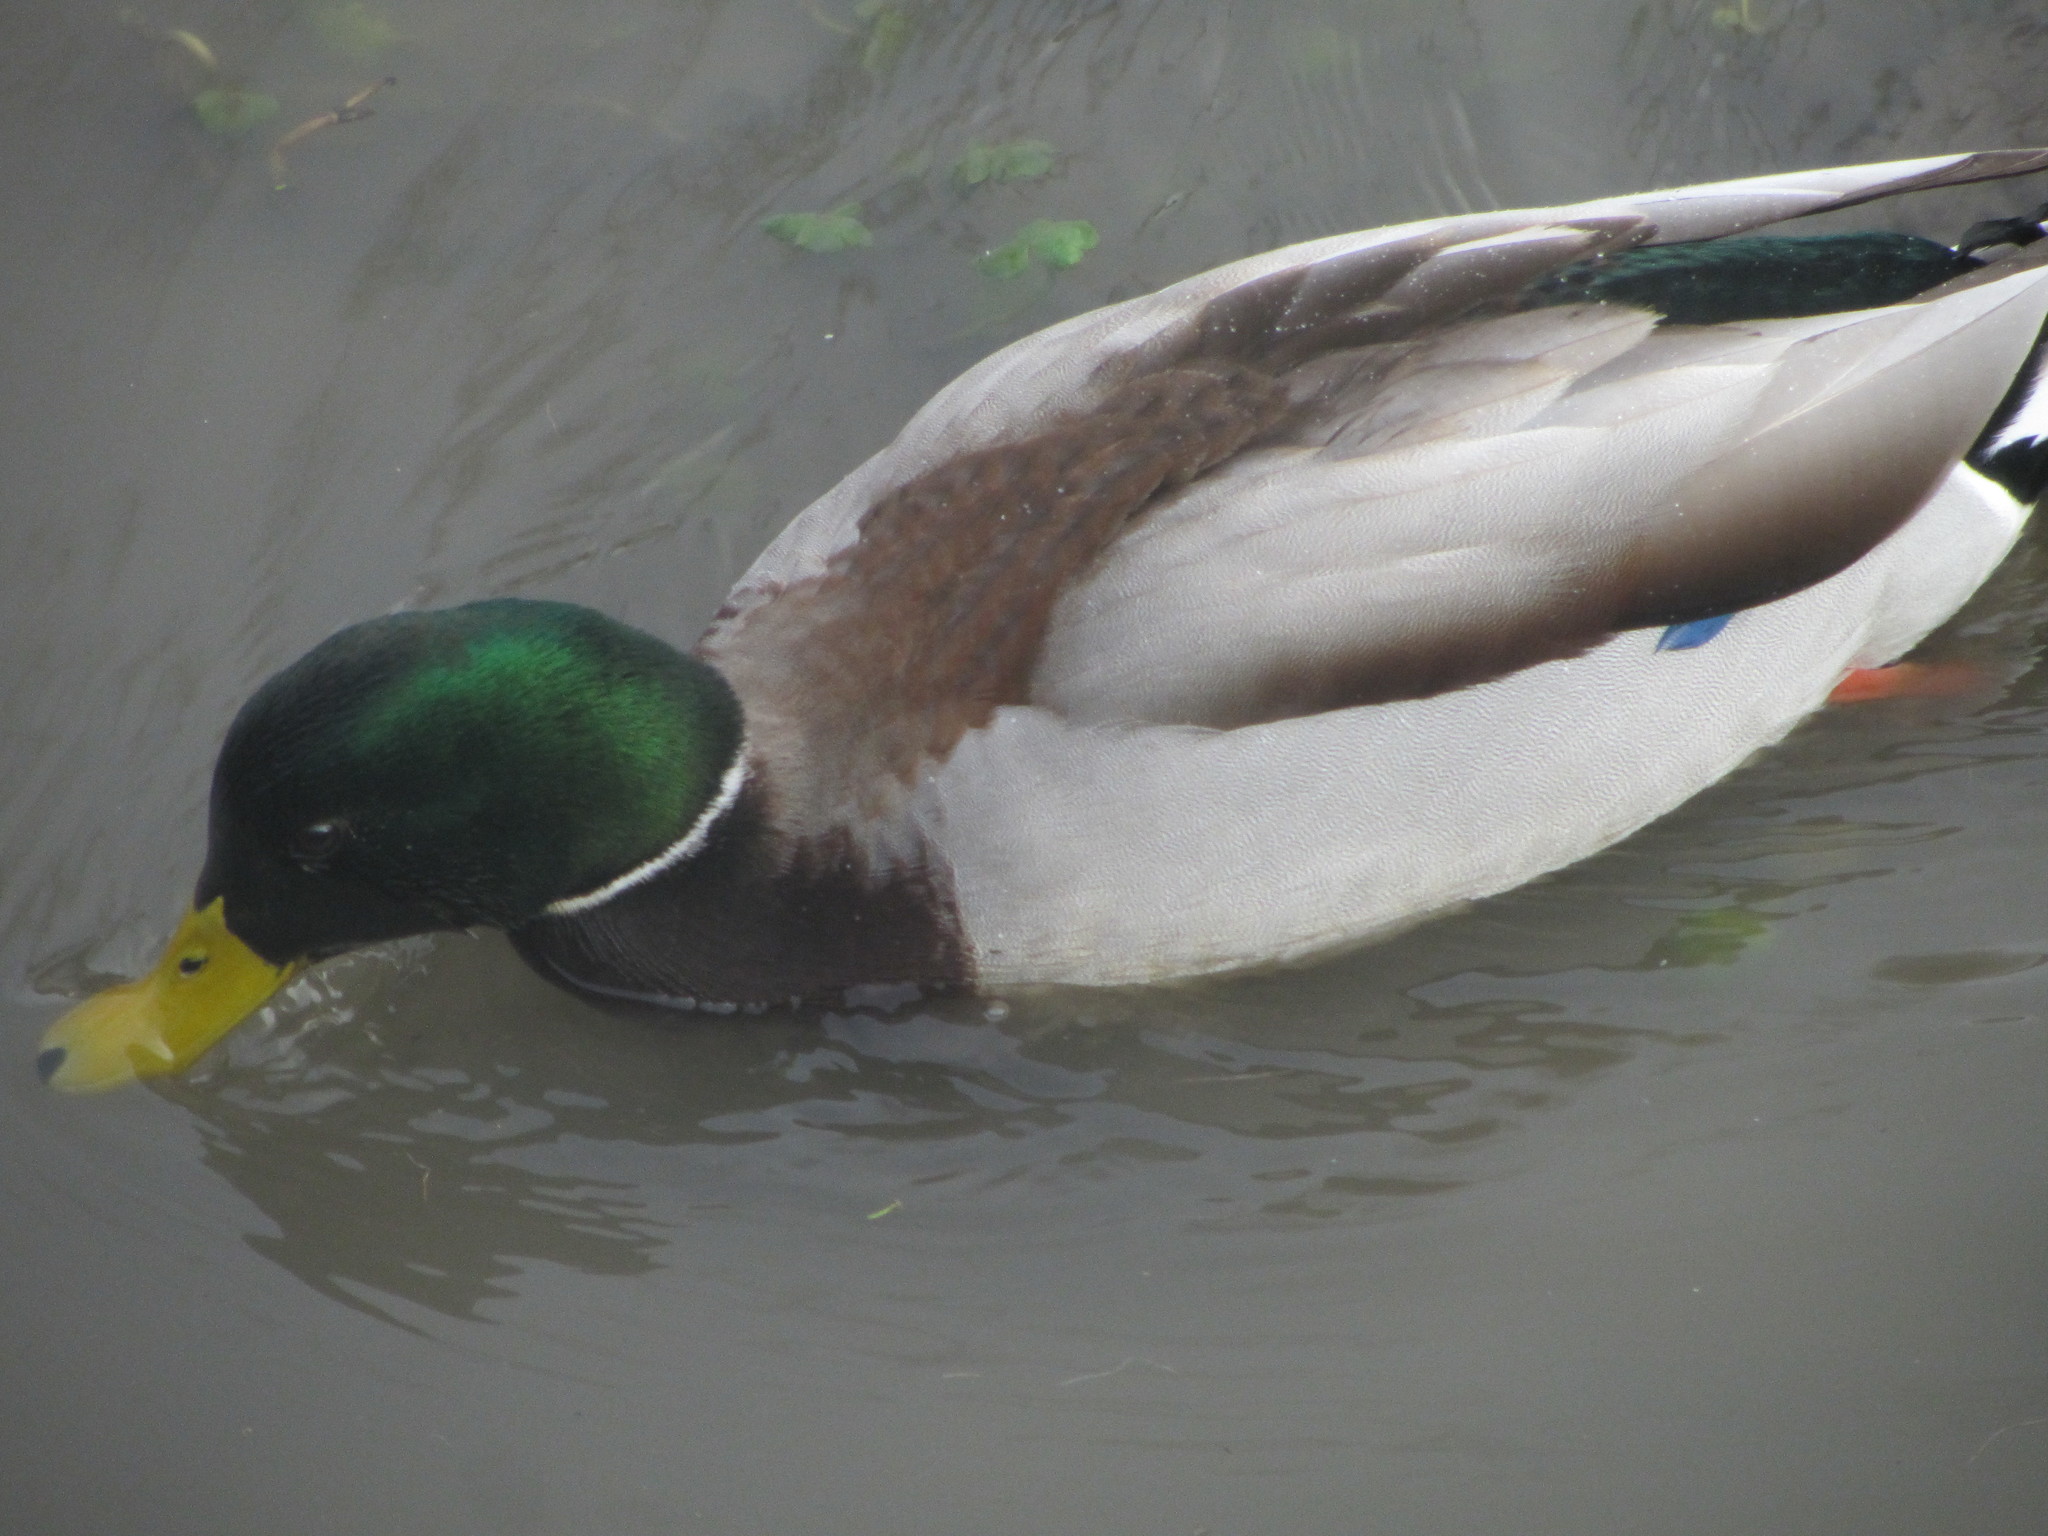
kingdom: Animalia
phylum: Chordata
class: Aves
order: Anseriformes
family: Anatidae
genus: Anas
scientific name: Anas platyrhynchos
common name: Mallard
